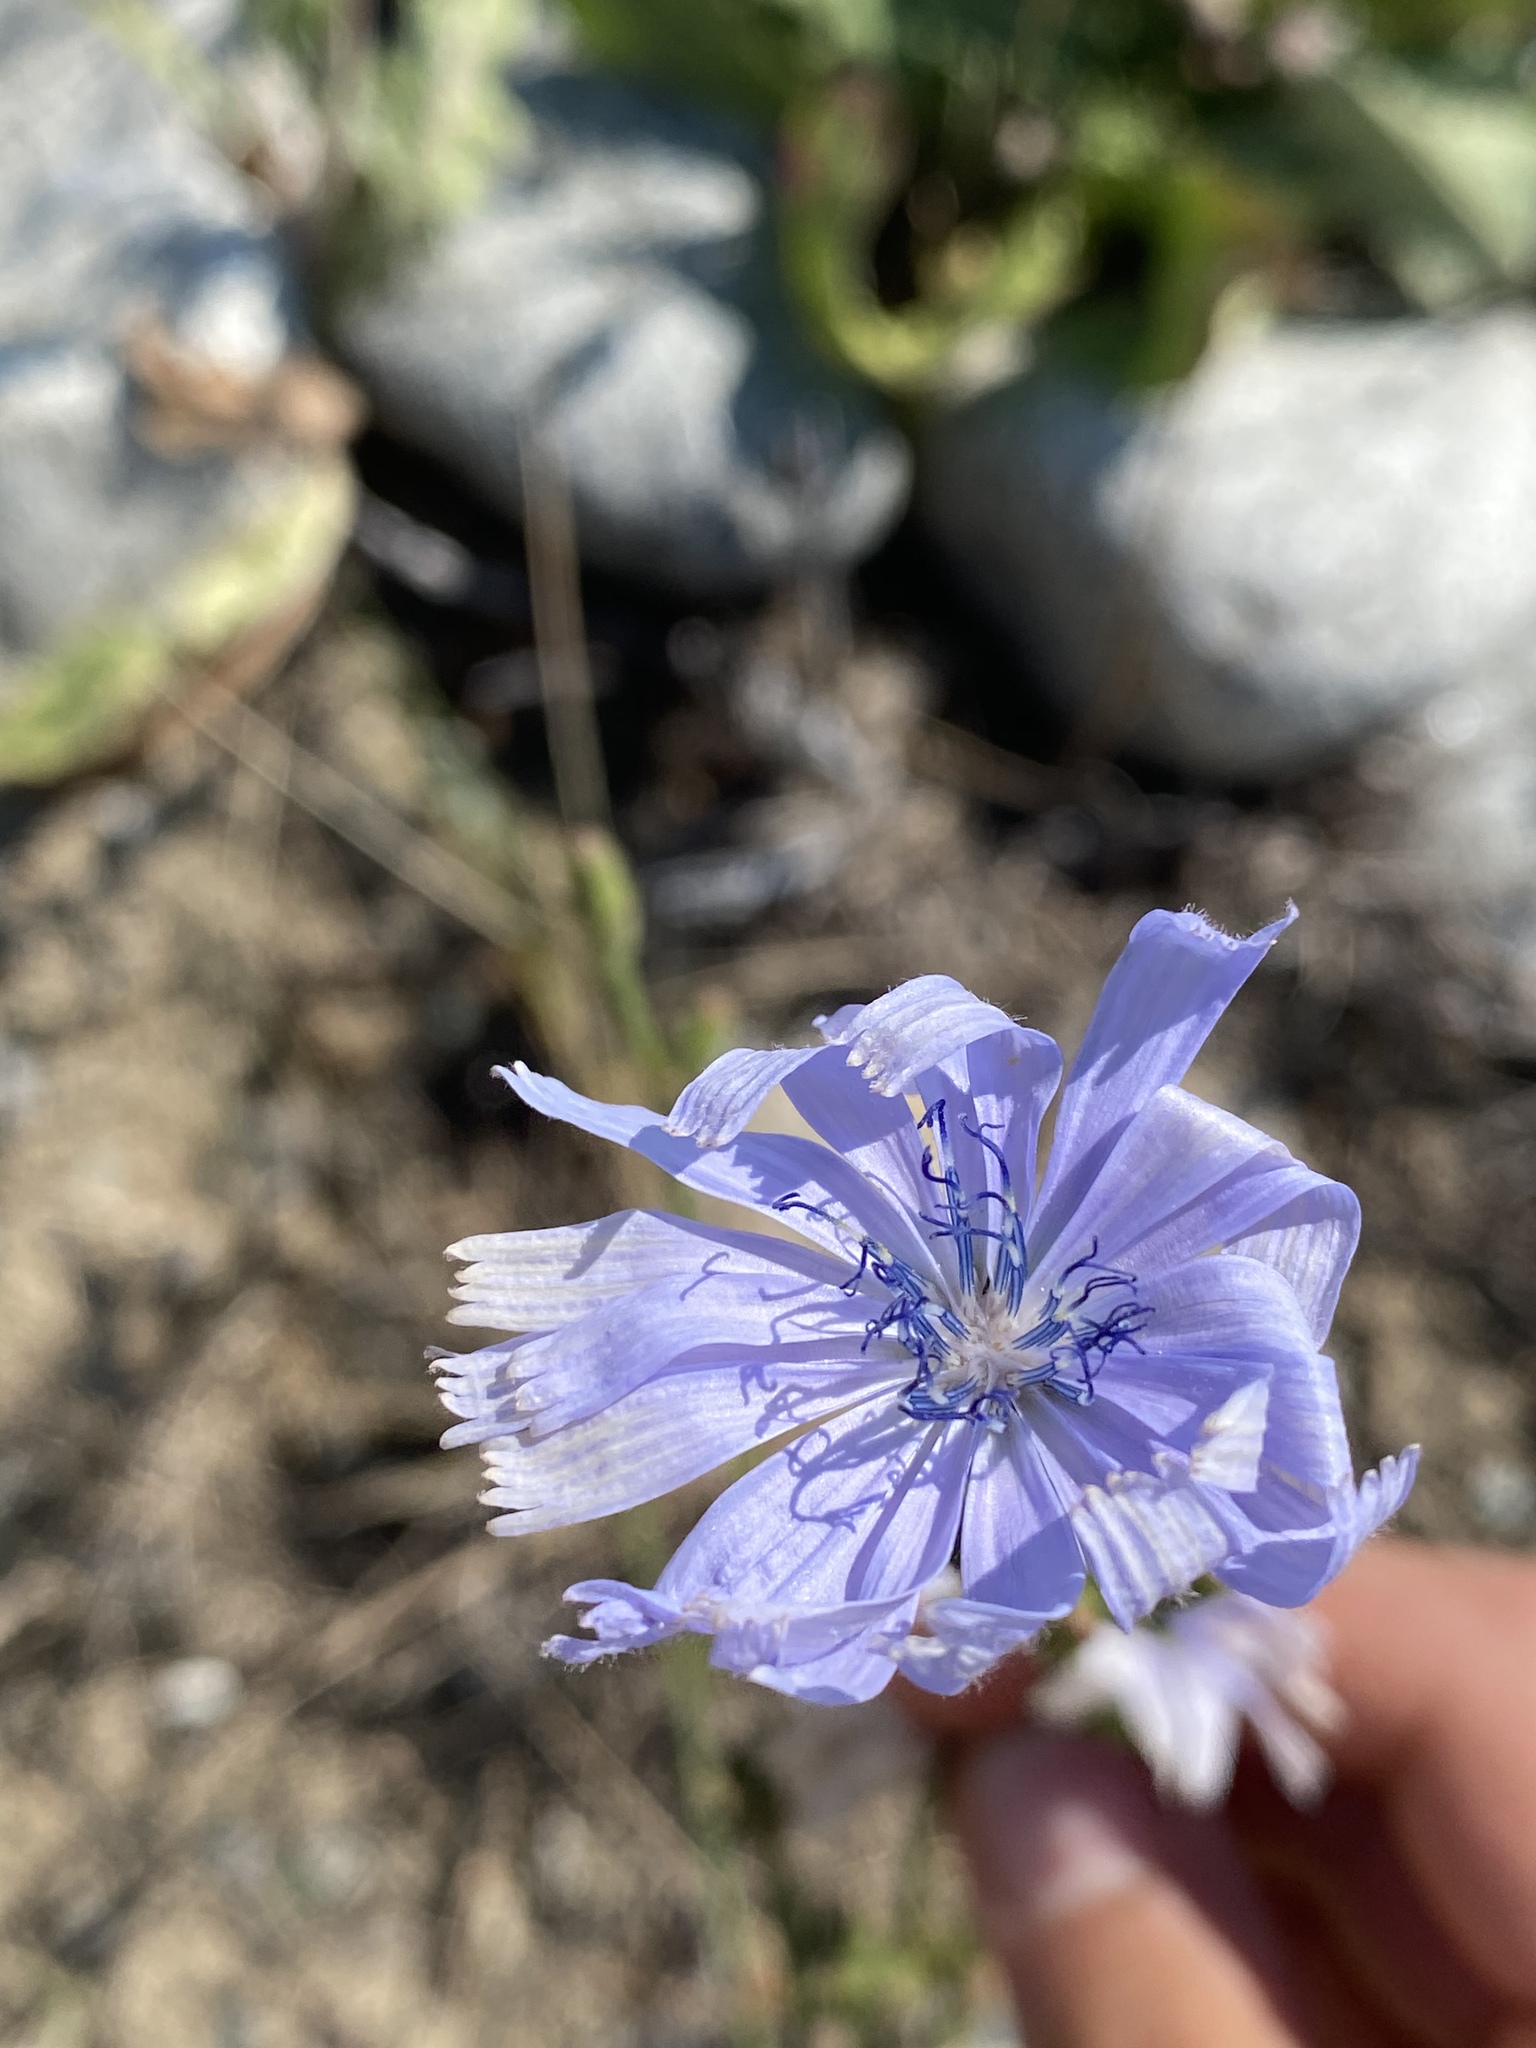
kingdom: Plantae
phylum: Tracheophyta
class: Magnoliopsida
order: Asterales
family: Asteraceae
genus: Cichorium
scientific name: Cichorium intybus
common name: Chicory
